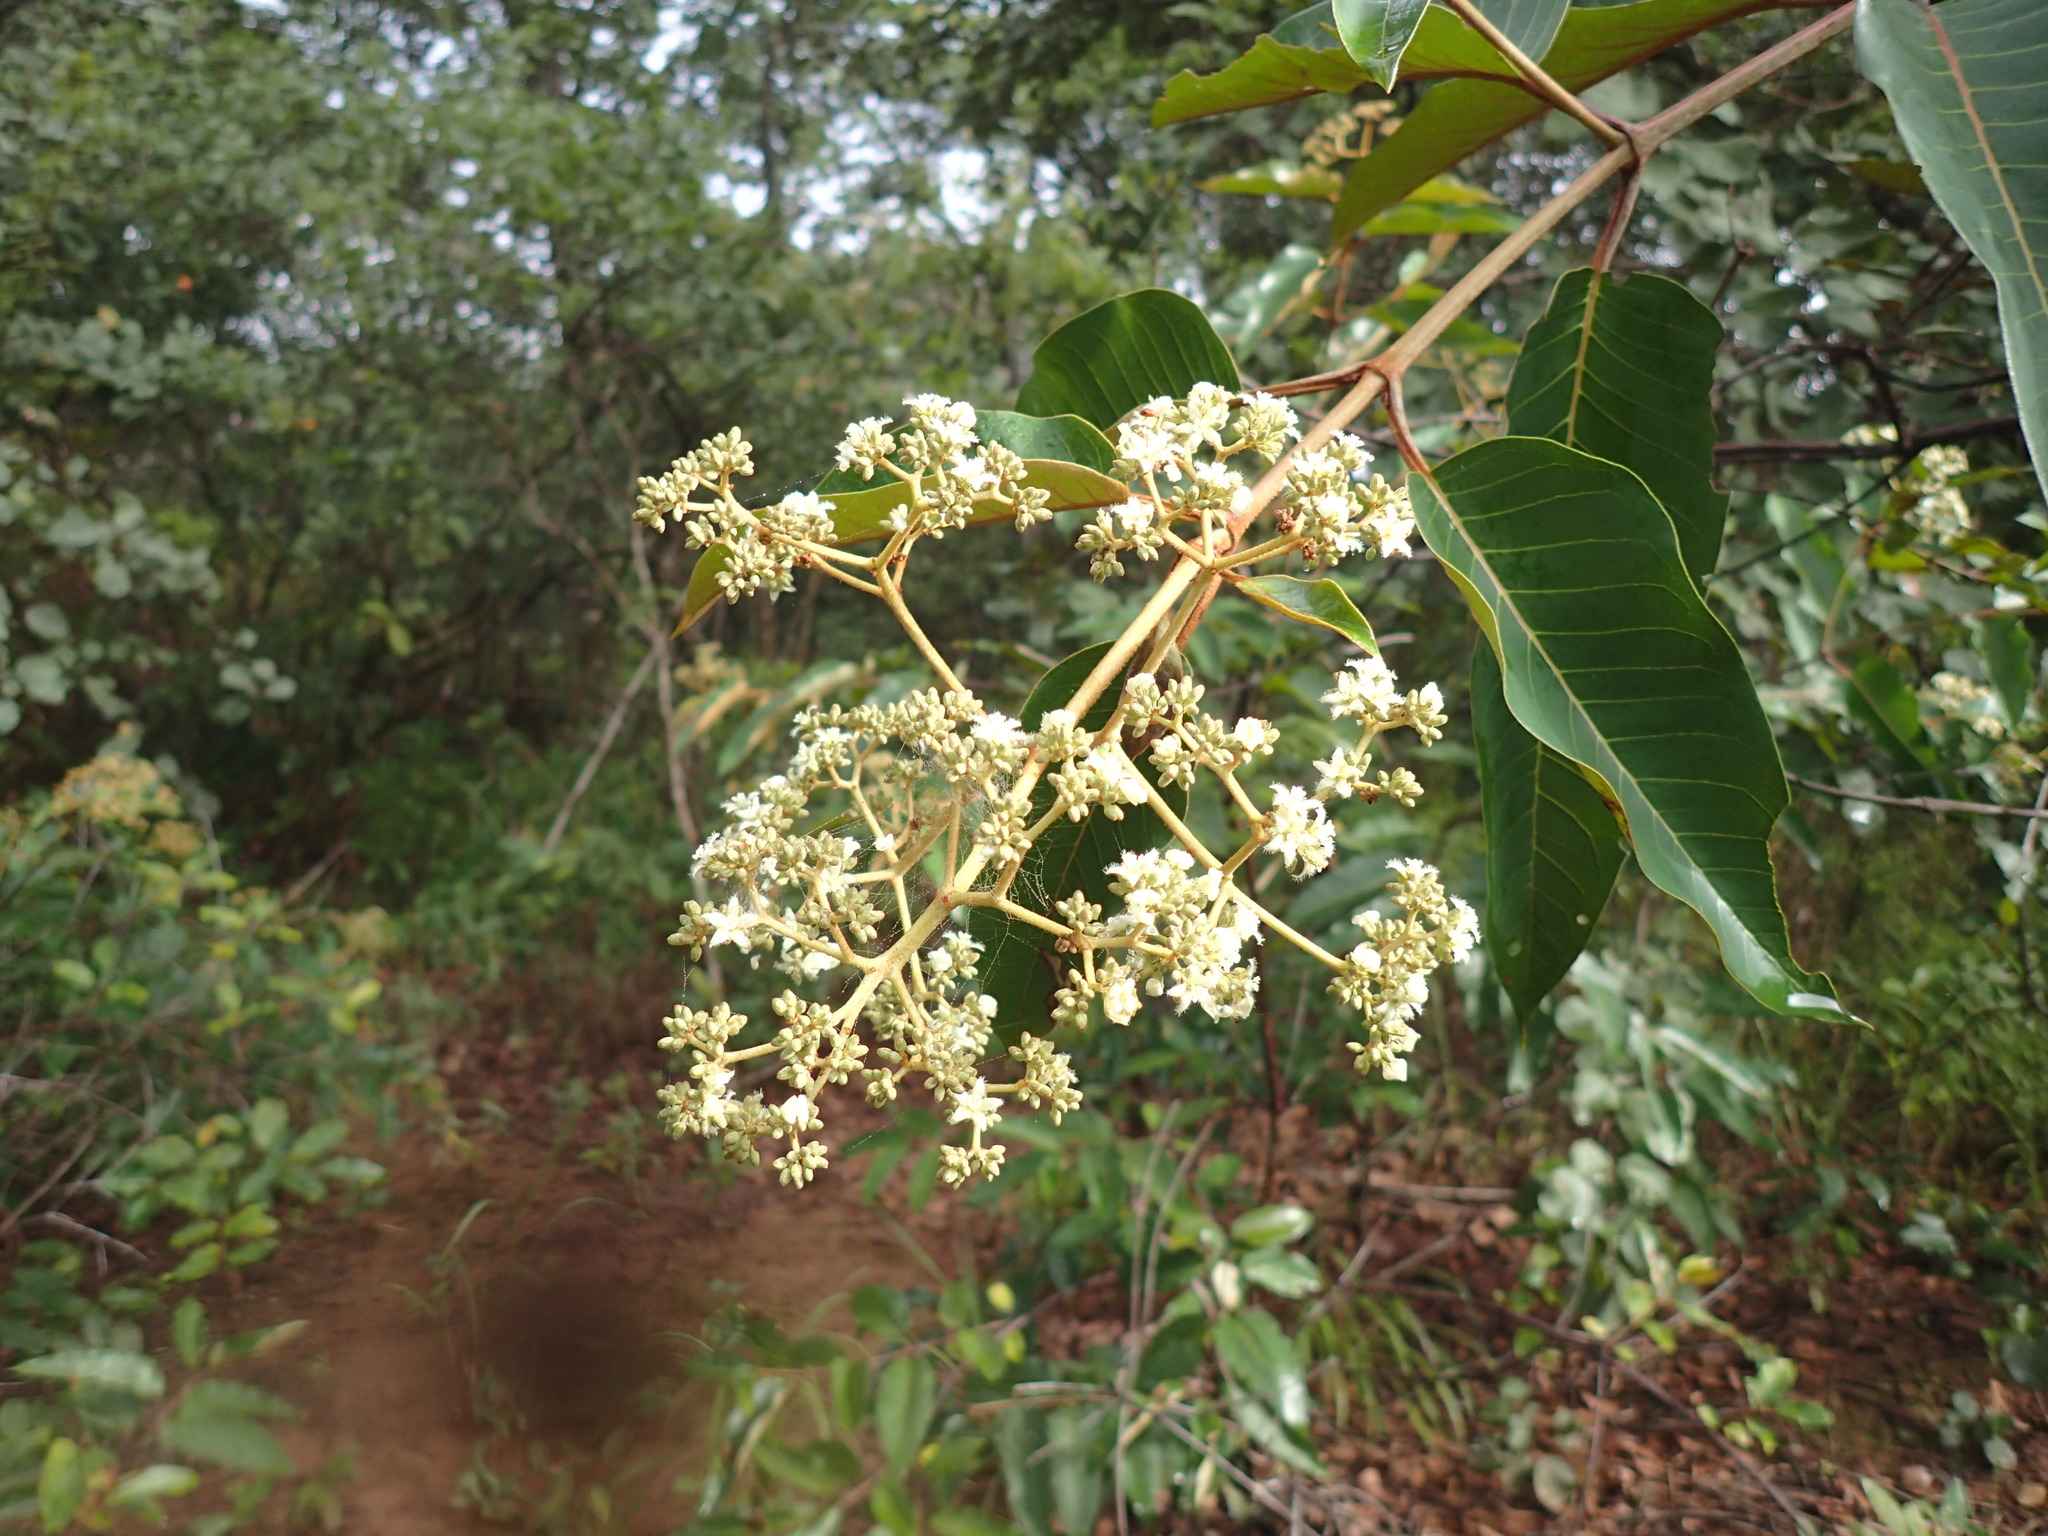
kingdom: Plantae
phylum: Tracheophyta
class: Magnoliopsida
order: Malpighiales
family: Hypericaceae
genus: Harungana
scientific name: Harungana madagascariensis
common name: Orange milktree
